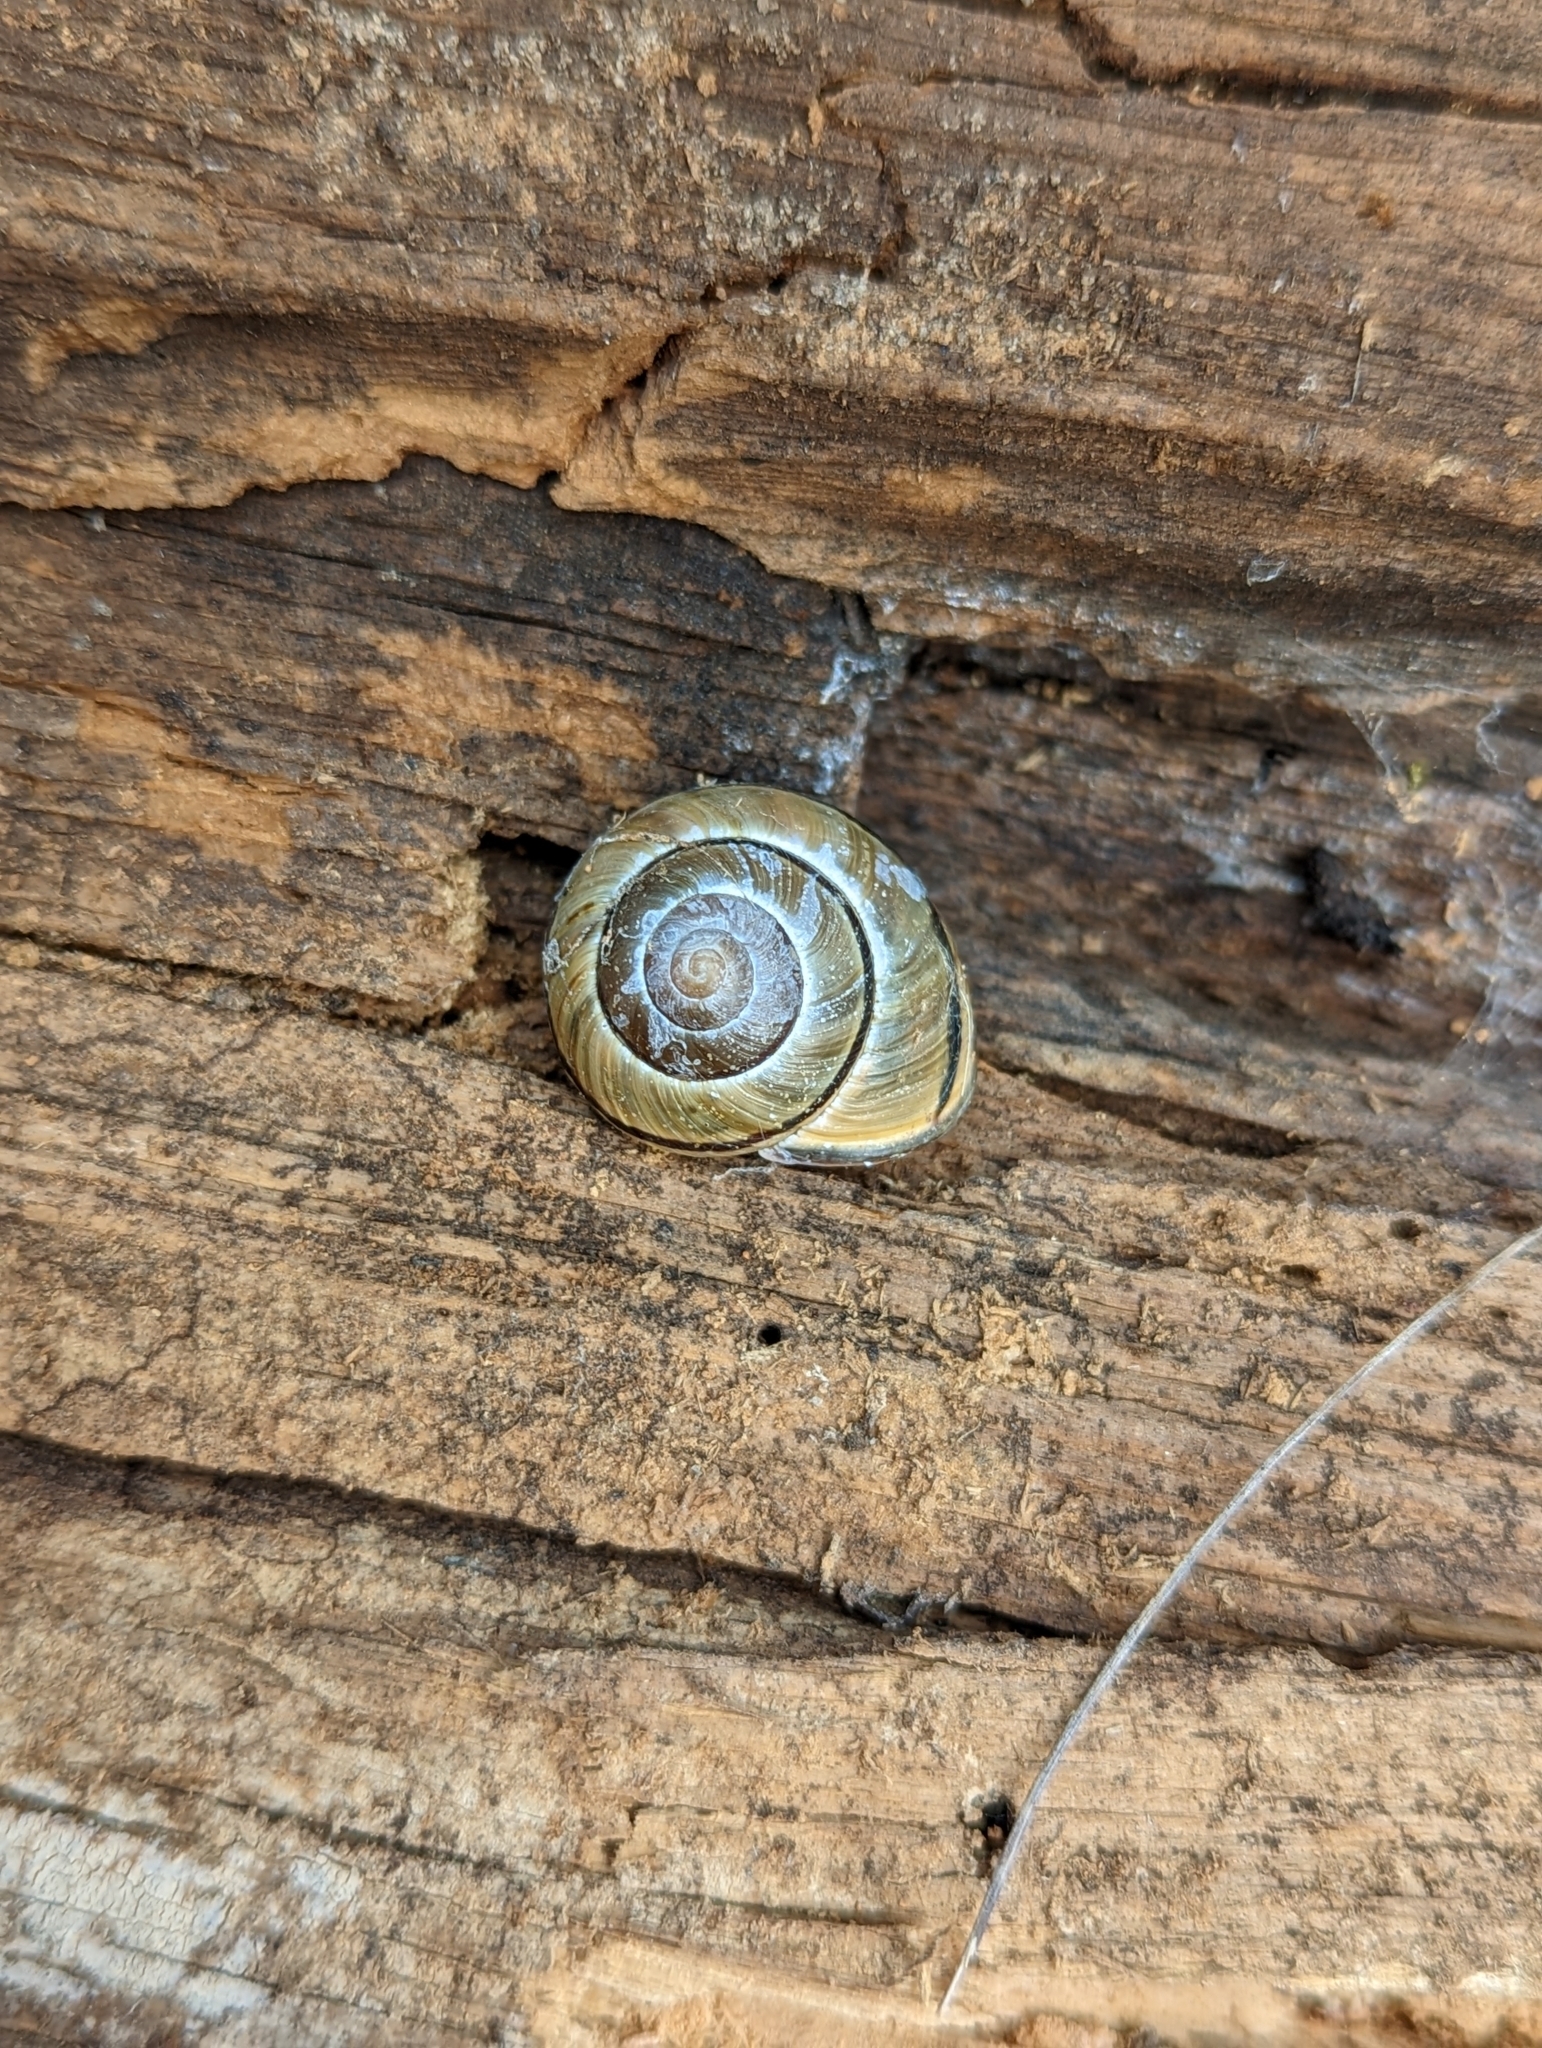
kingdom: Animalia
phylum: Mollusca
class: Gastropoda
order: Stylommatophora
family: Helicidae
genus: Cepaea
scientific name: Cepaea nemoralis
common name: Grovesnail
